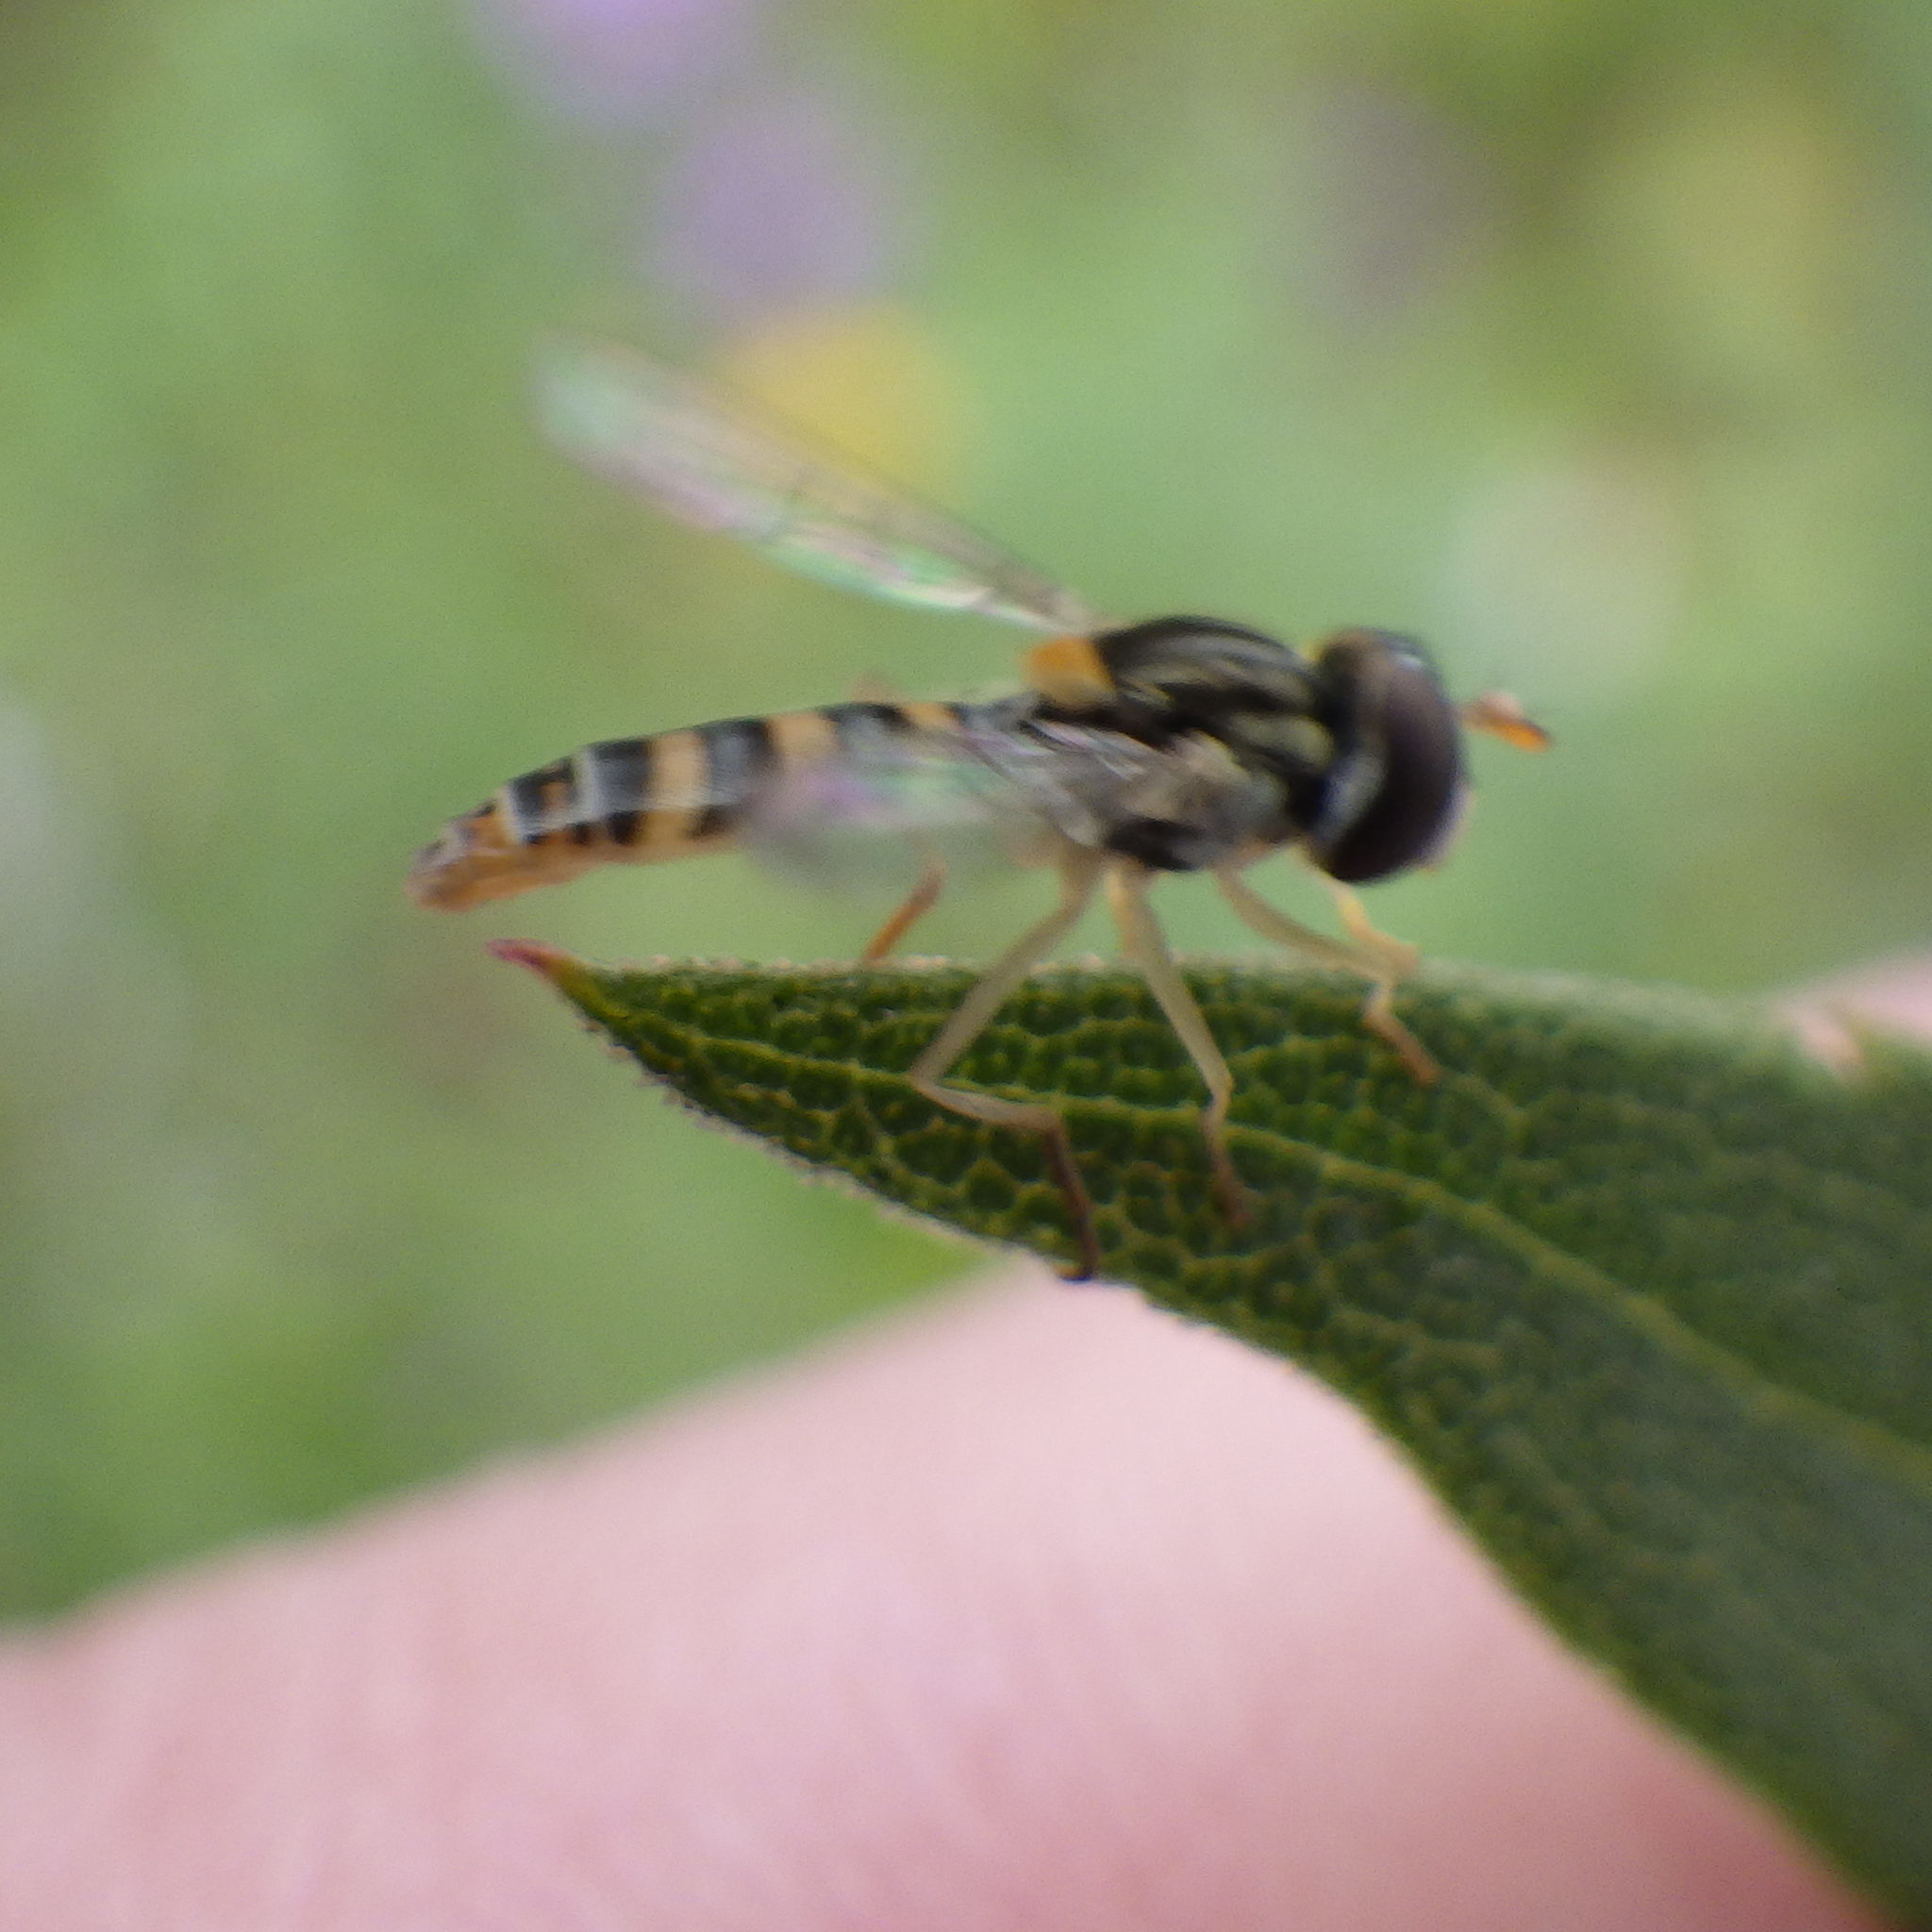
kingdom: Animalia
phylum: Arthropoda
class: Insecta
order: Diptera
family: Syrphidae
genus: Sphaerophoria
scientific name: Sphaerophoria contigua
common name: Tufted globetail
